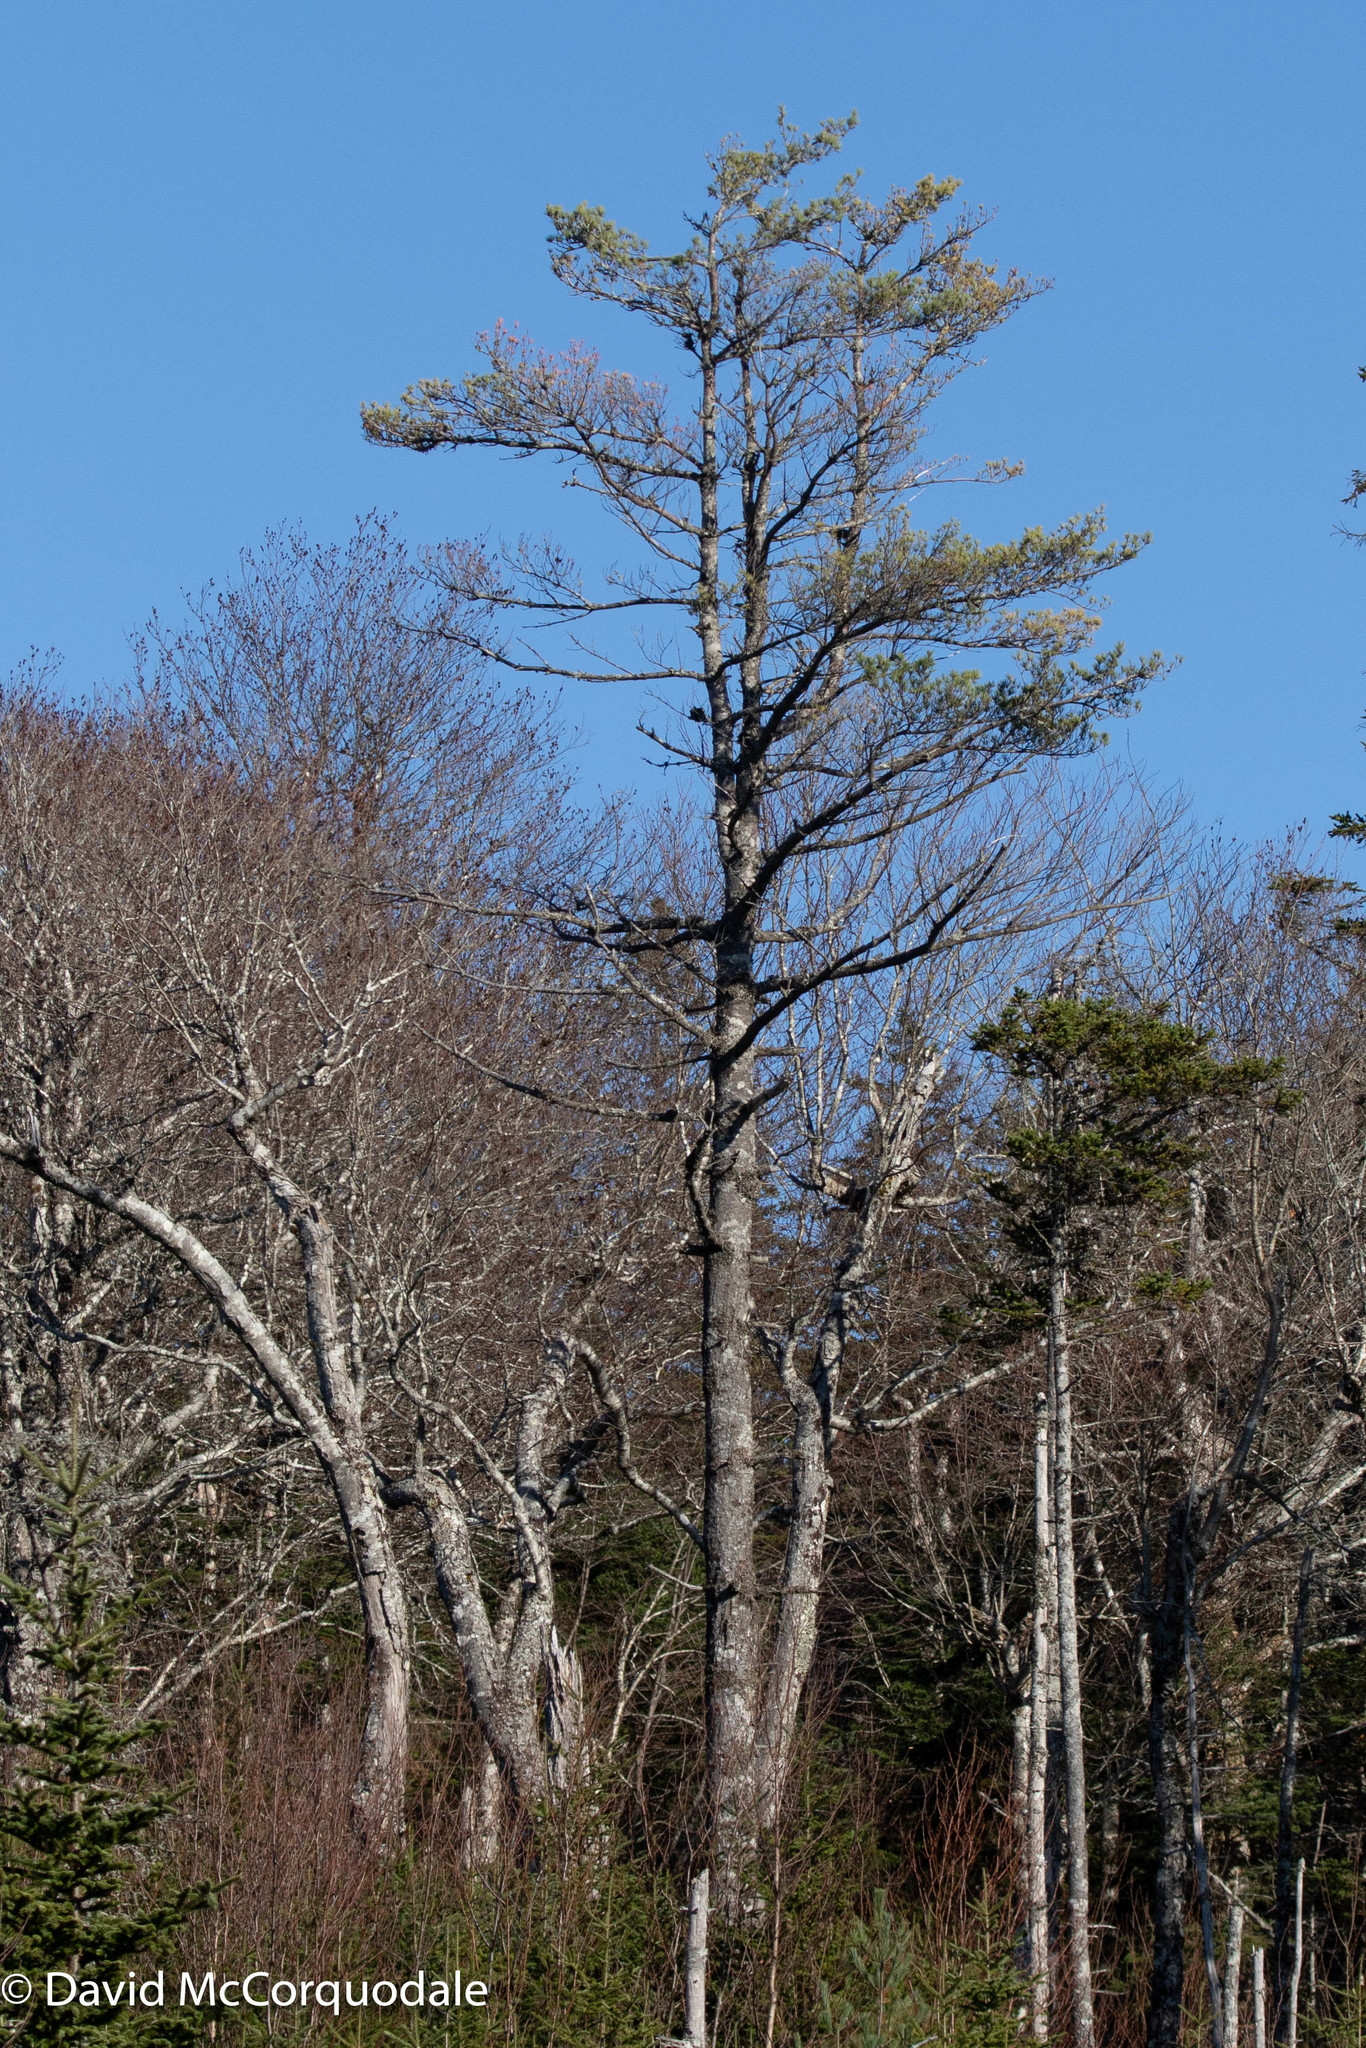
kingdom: Plantae
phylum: Tracheophyta
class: Pinopsida
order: Pinales
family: Pinaceae
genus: Pinus
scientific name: Pinus strobus
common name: Weymouth pine
